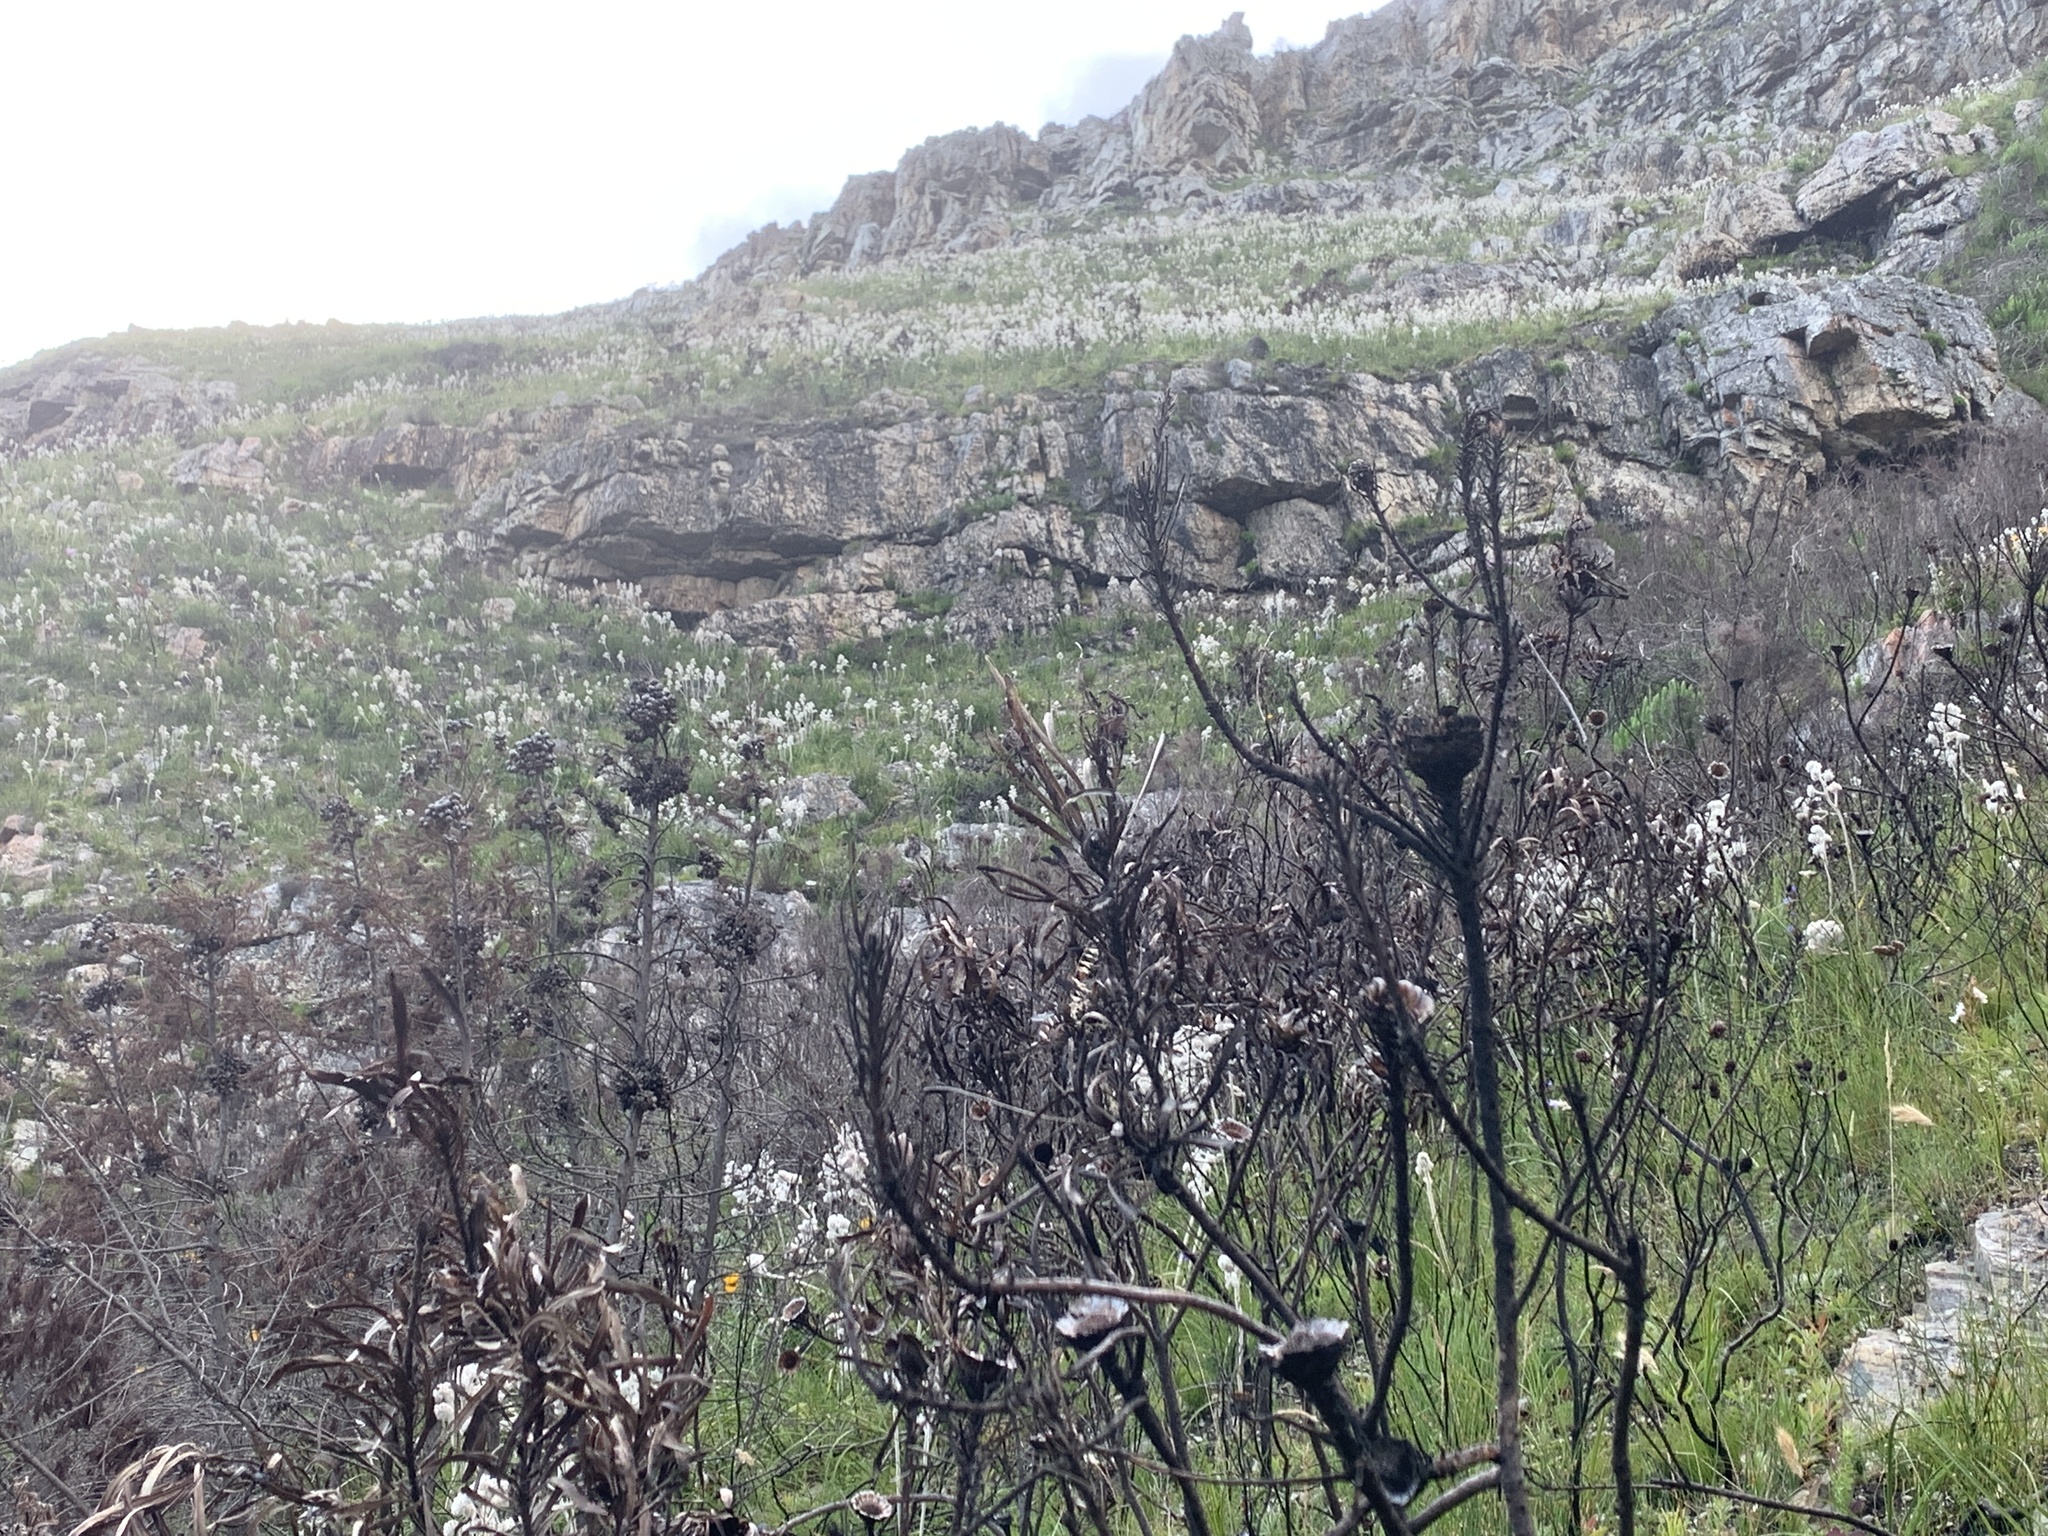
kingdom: Plantae
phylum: Tracheophyta
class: Liliopsida
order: Asparagales
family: Lanariaceae
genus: Lanaria
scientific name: Lanaria lanata
